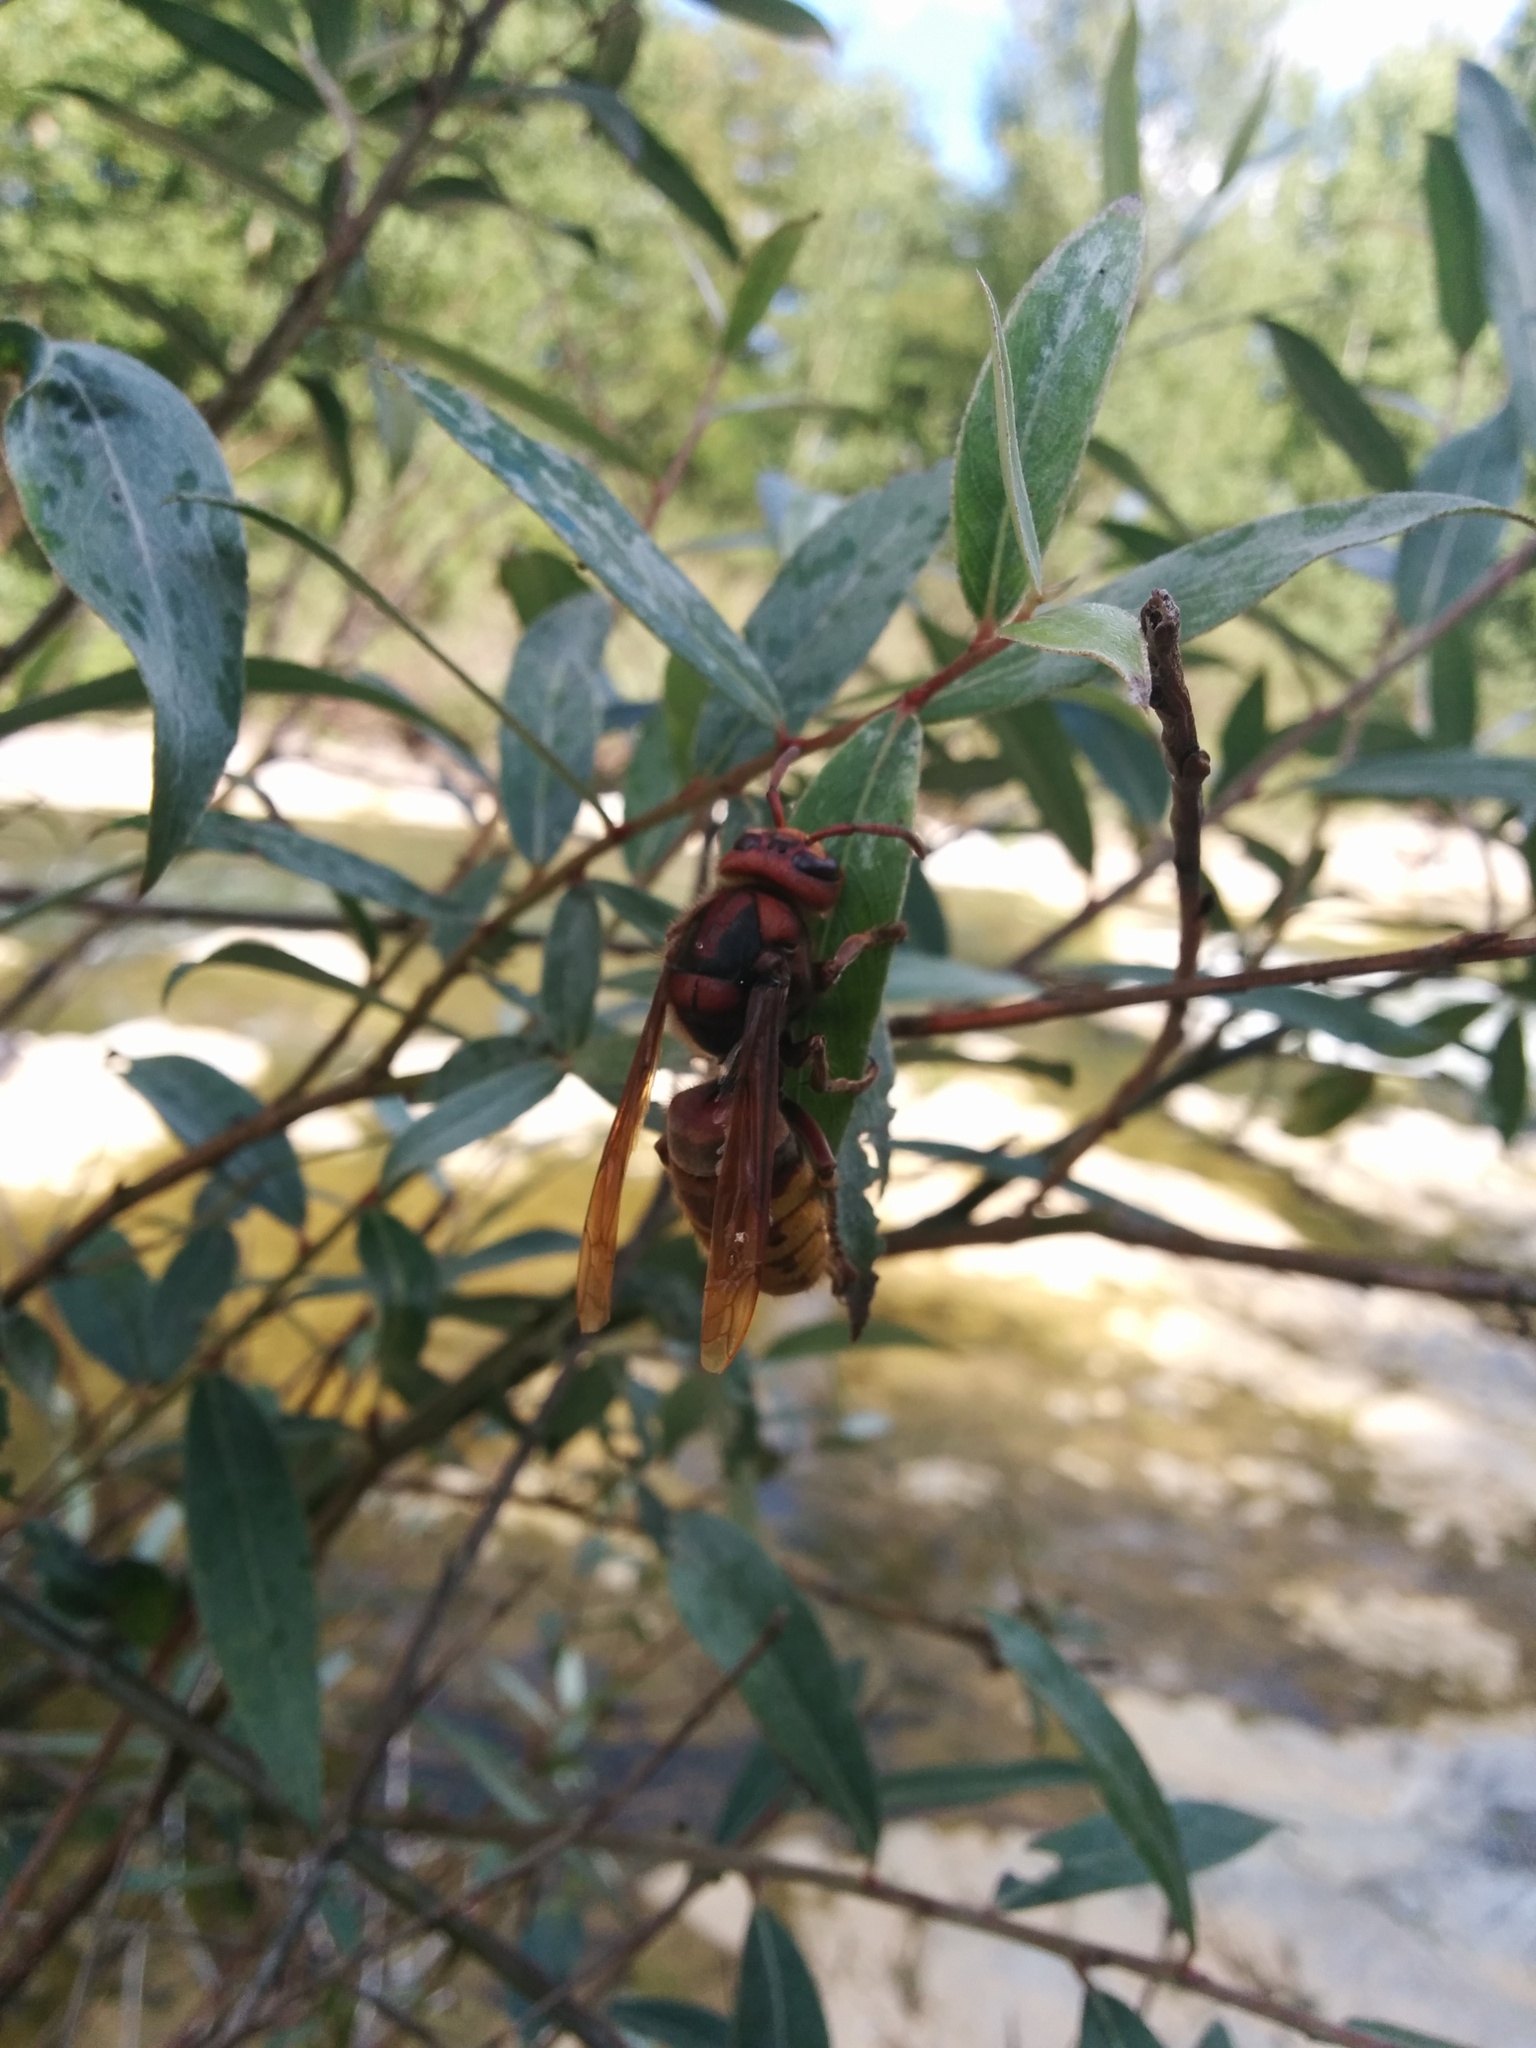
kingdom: Animalia
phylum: Arthropoda
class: Insecta
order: Hymenoptera
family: Vespidae
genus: Vespa
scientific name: Vespa crabro
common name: Hornet
